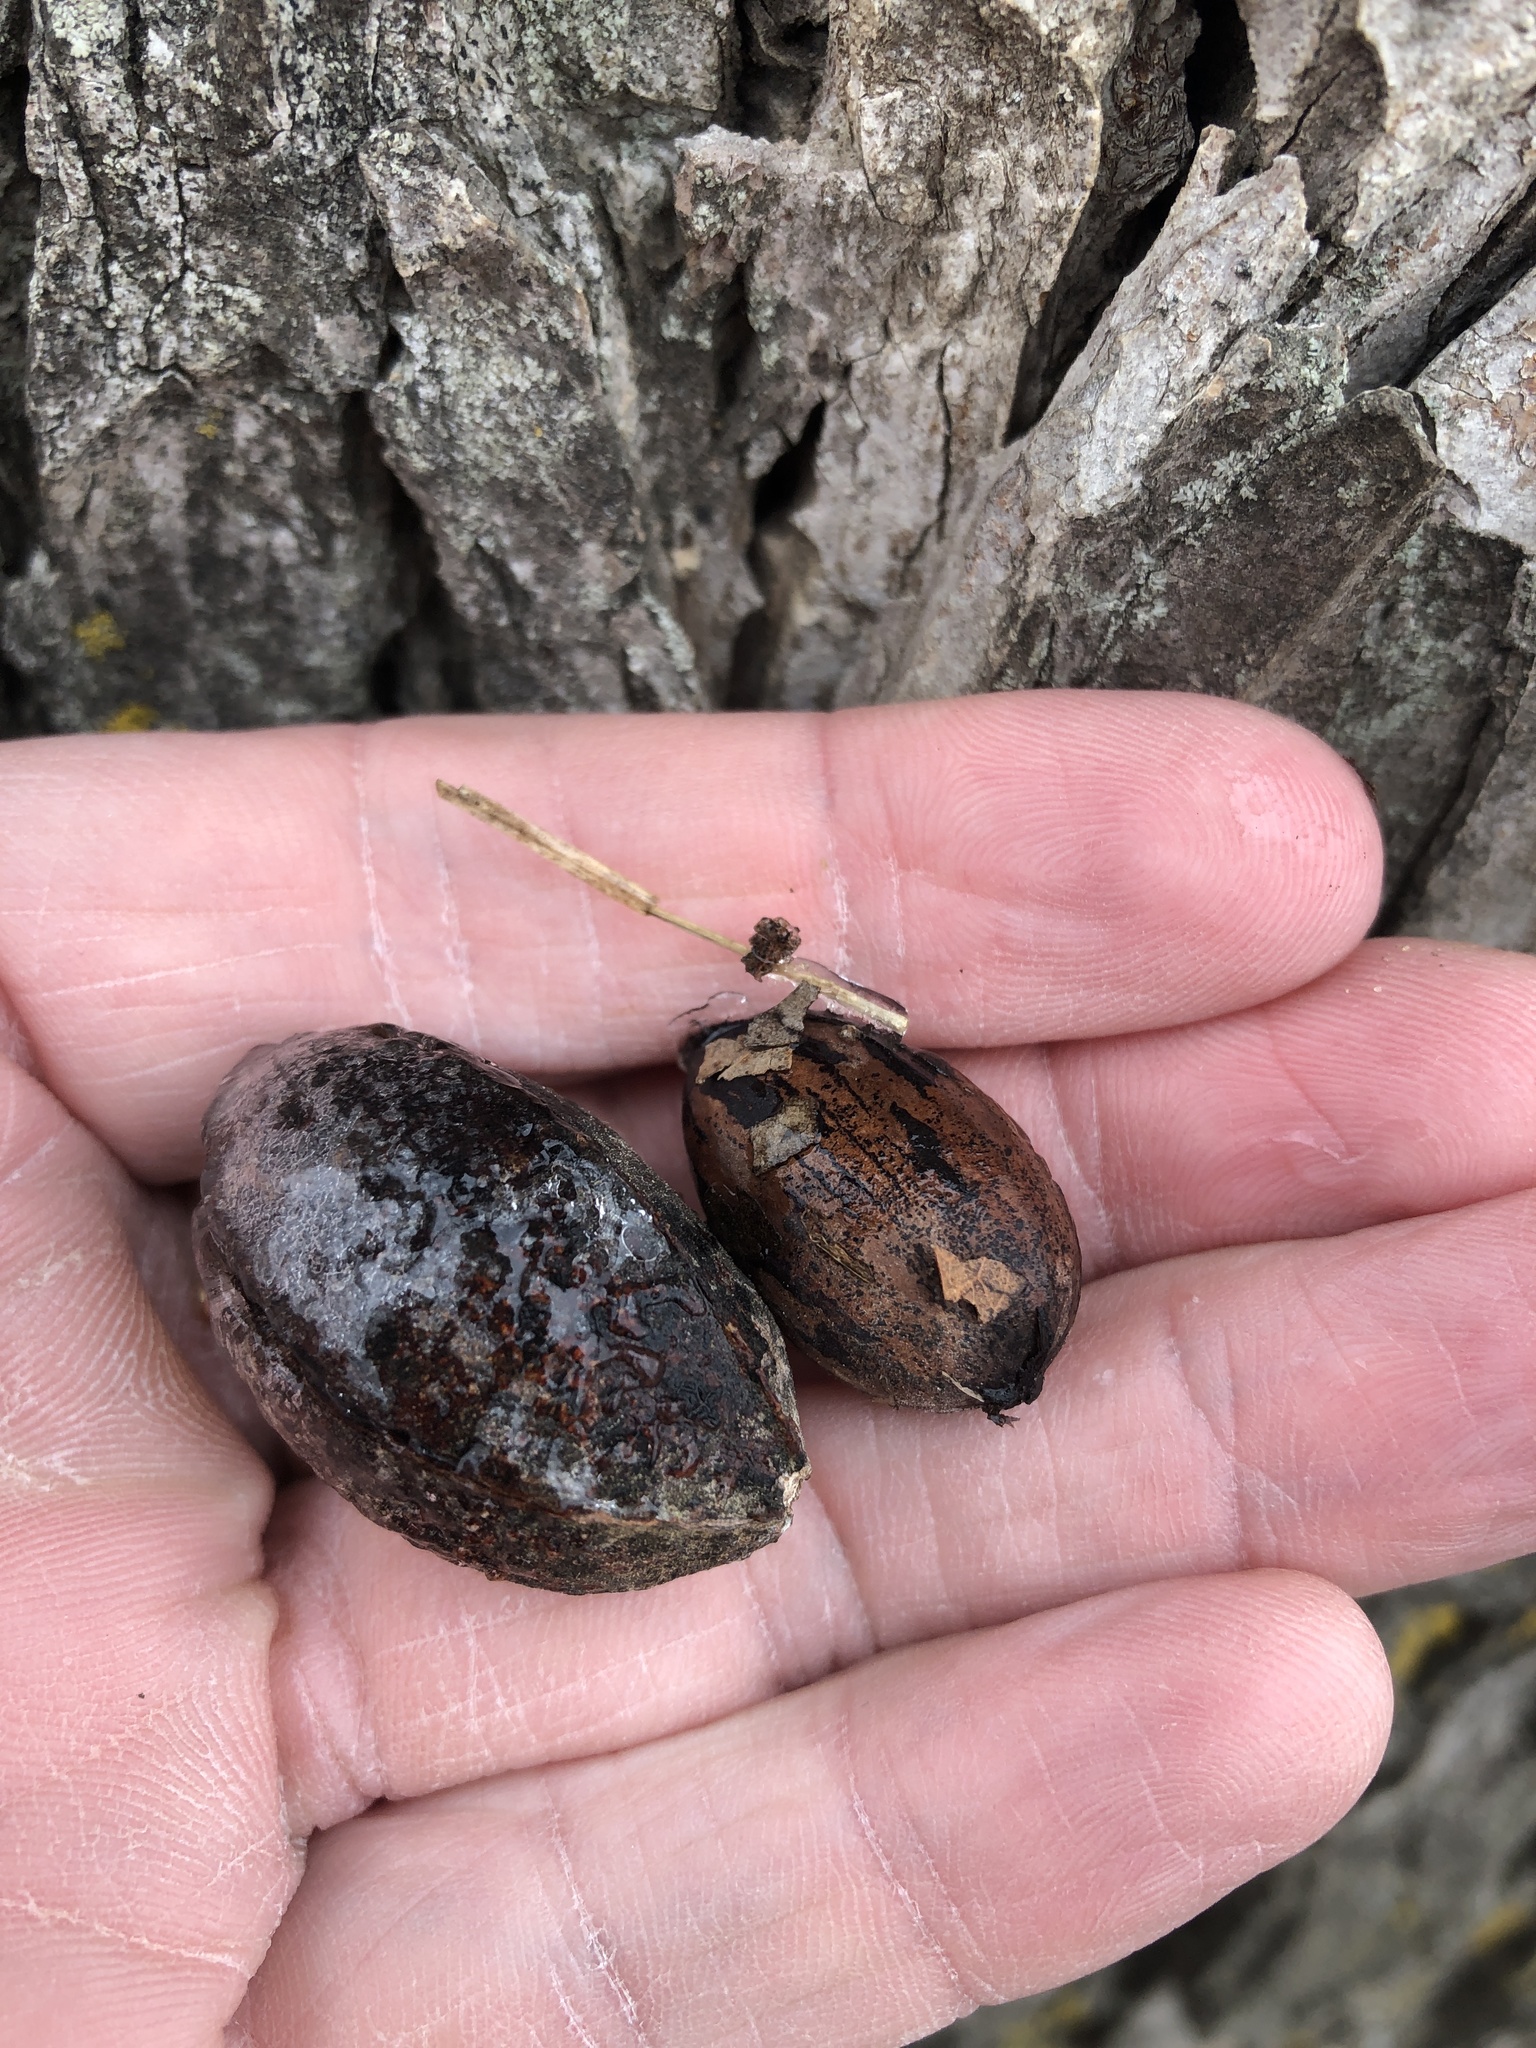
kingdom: Plantae
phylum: Tracheophyta
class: Magnoliopsida
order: Fagales
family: Juglandaceae
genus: Carya
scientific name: Carya illinoinensis
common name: Pecan
